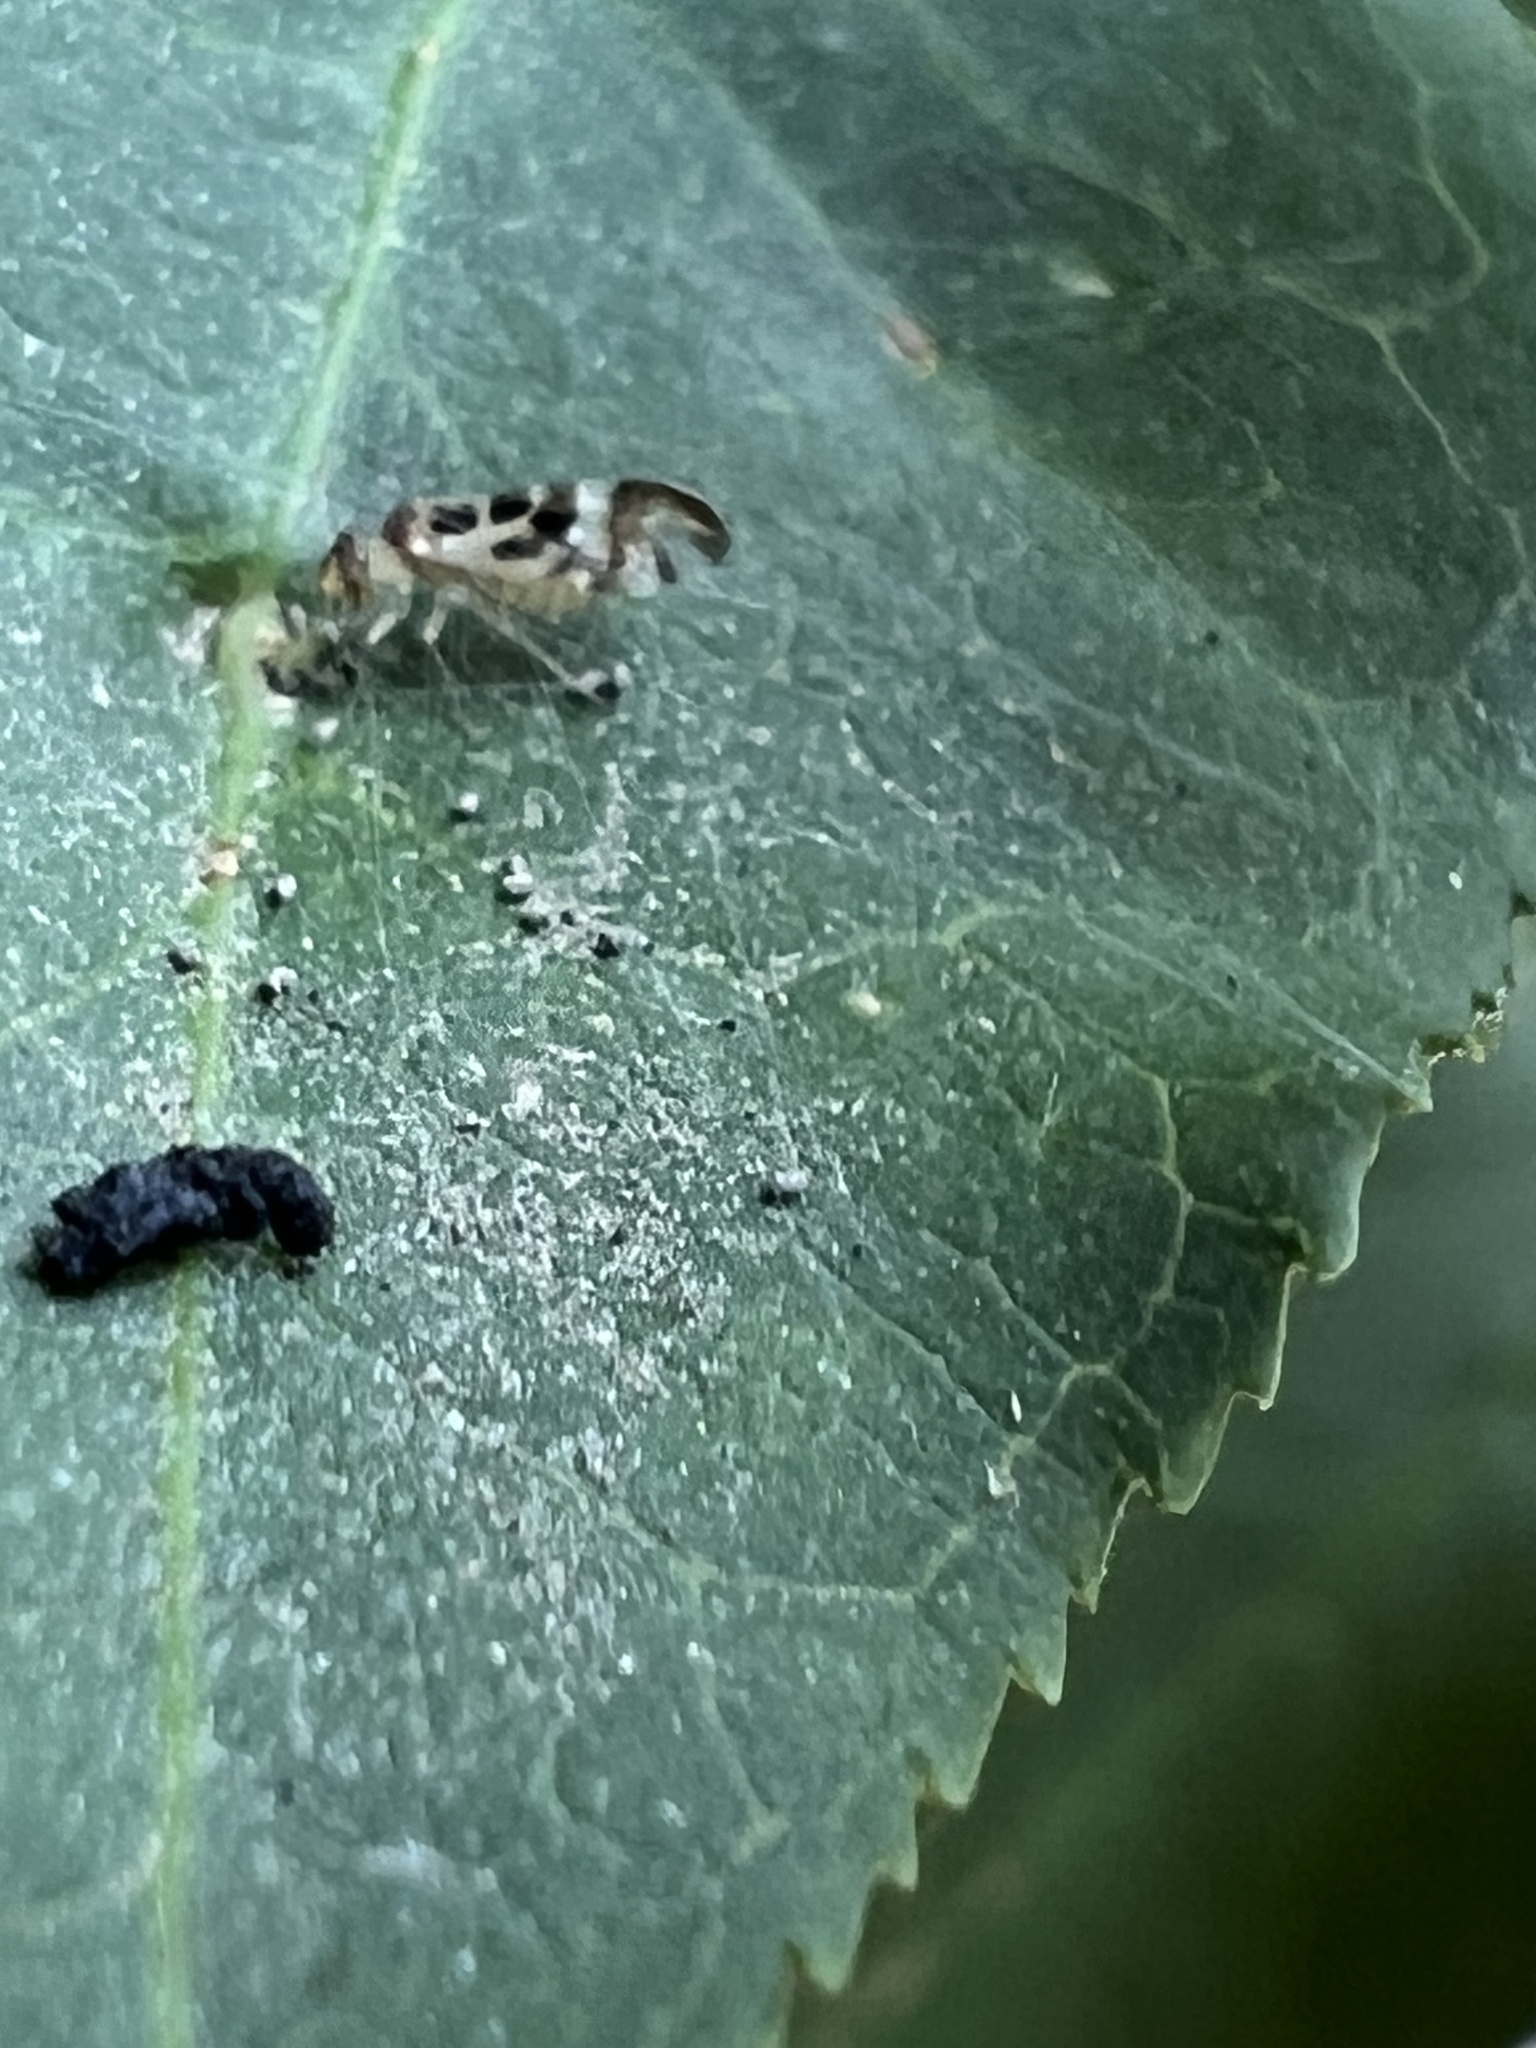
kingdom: Animalia
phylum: Arthropoda
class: Insecta
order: Psocodea
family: Stenopsocidae
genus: Graphopsocus
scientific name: Graphopsocus cruciatus
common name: Lizard bark louse
